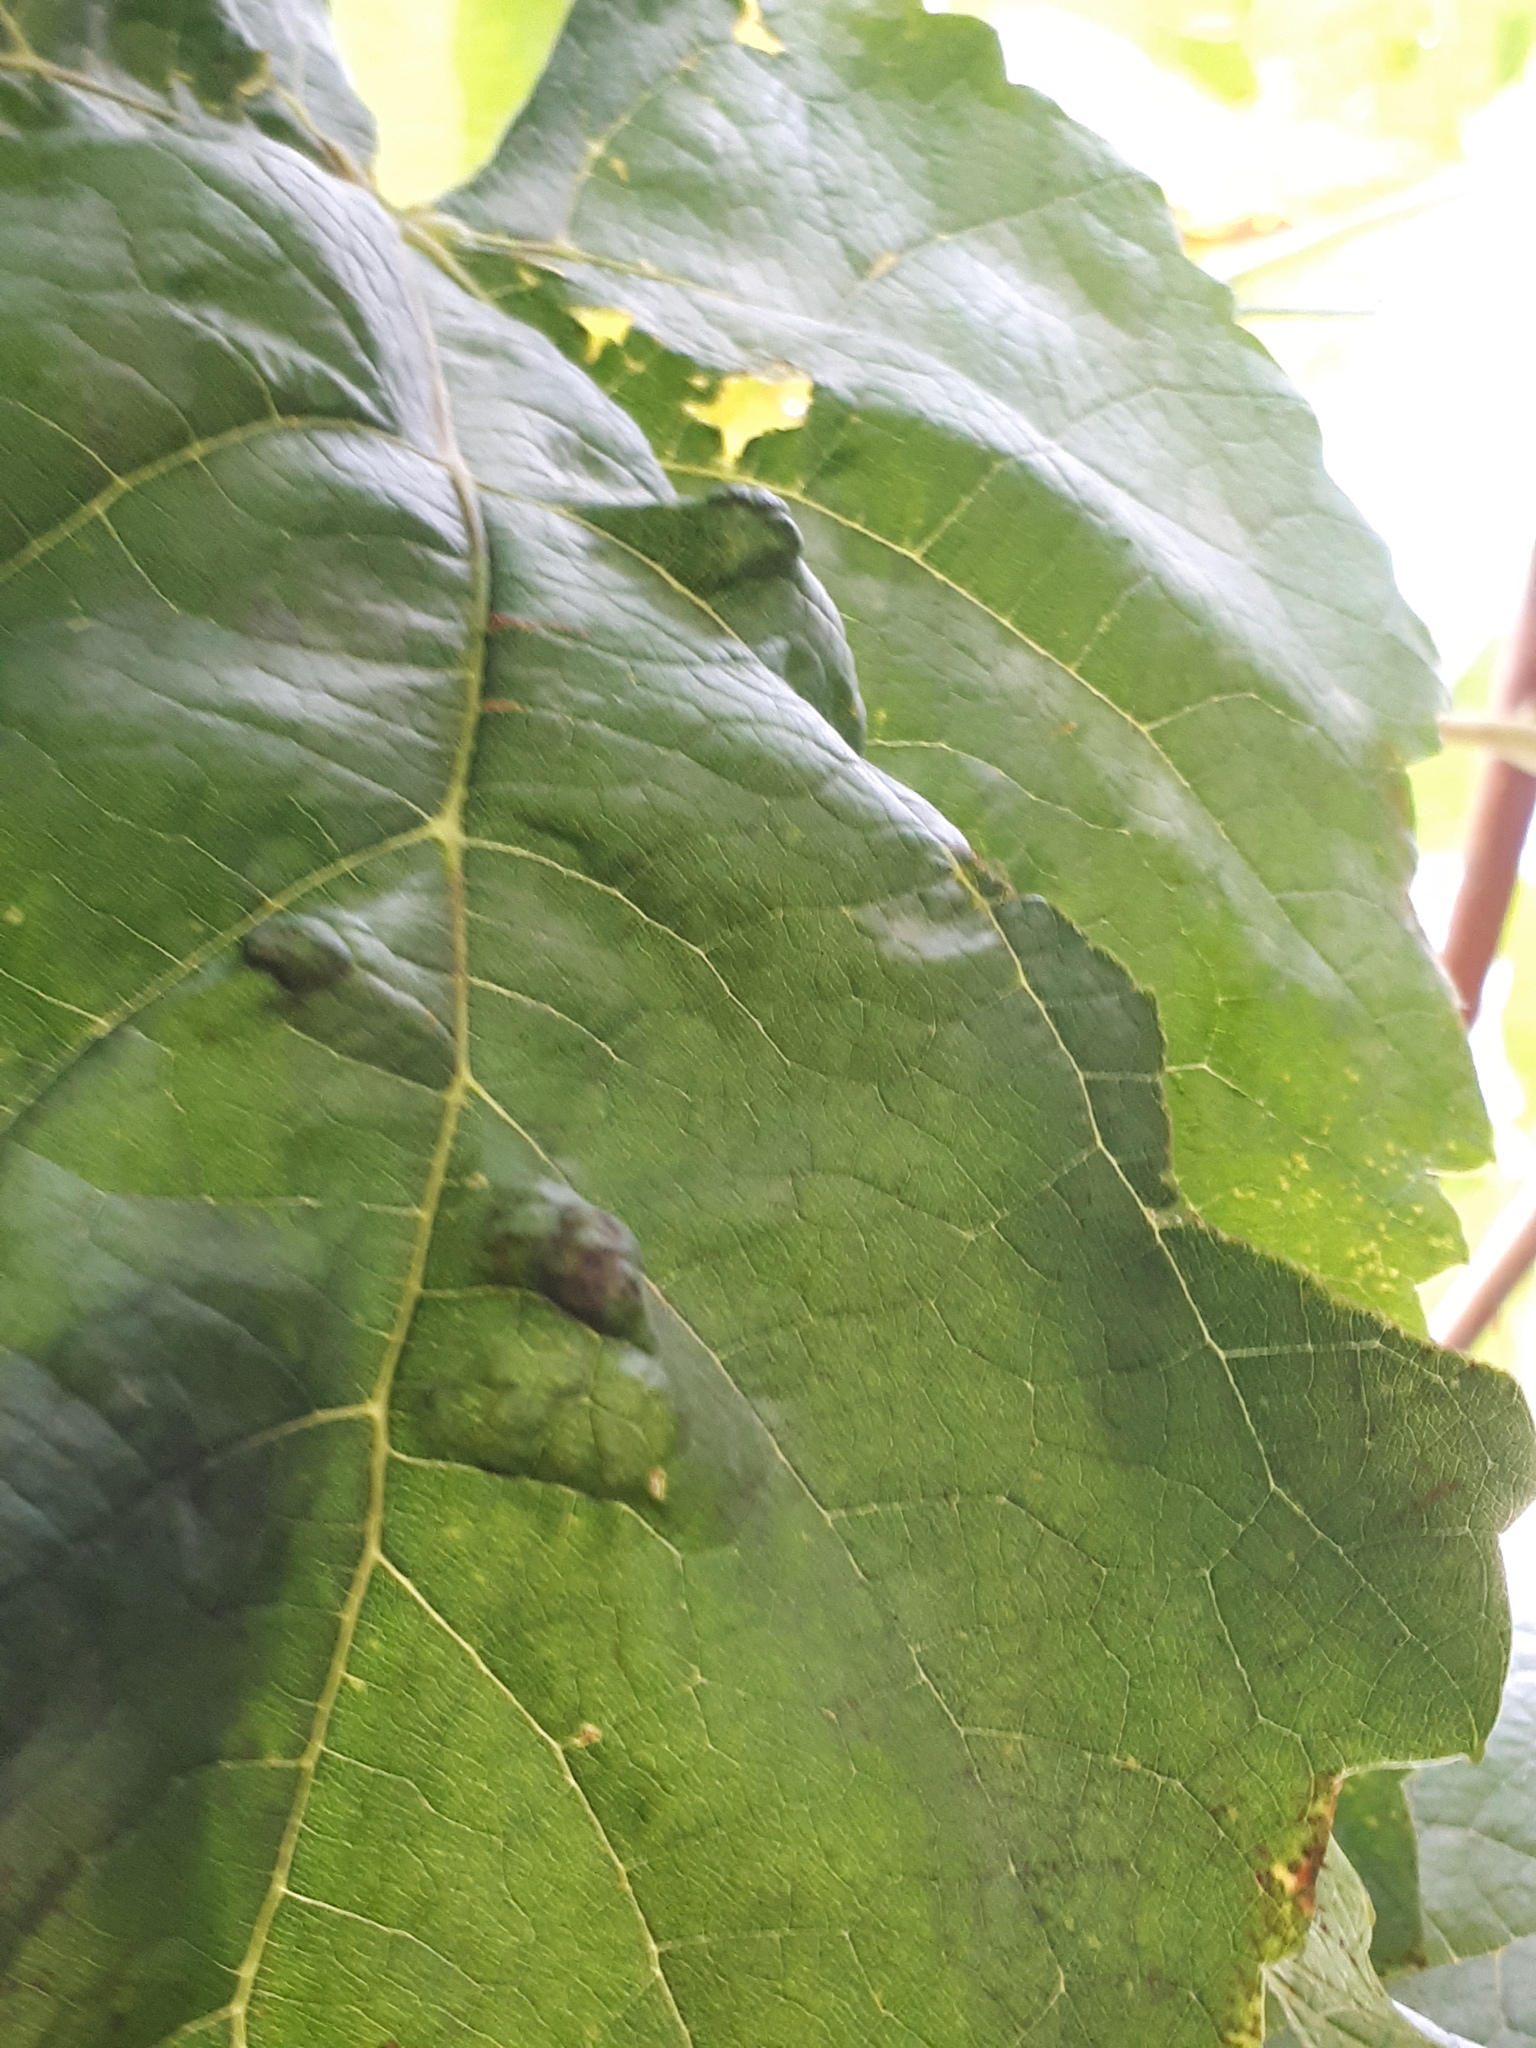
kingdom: Animalia
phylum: Arthropoda
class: Arachnida
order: Trombidiformes
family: Eriophyidae
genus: Colomerus
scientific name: Colomerus vitis
